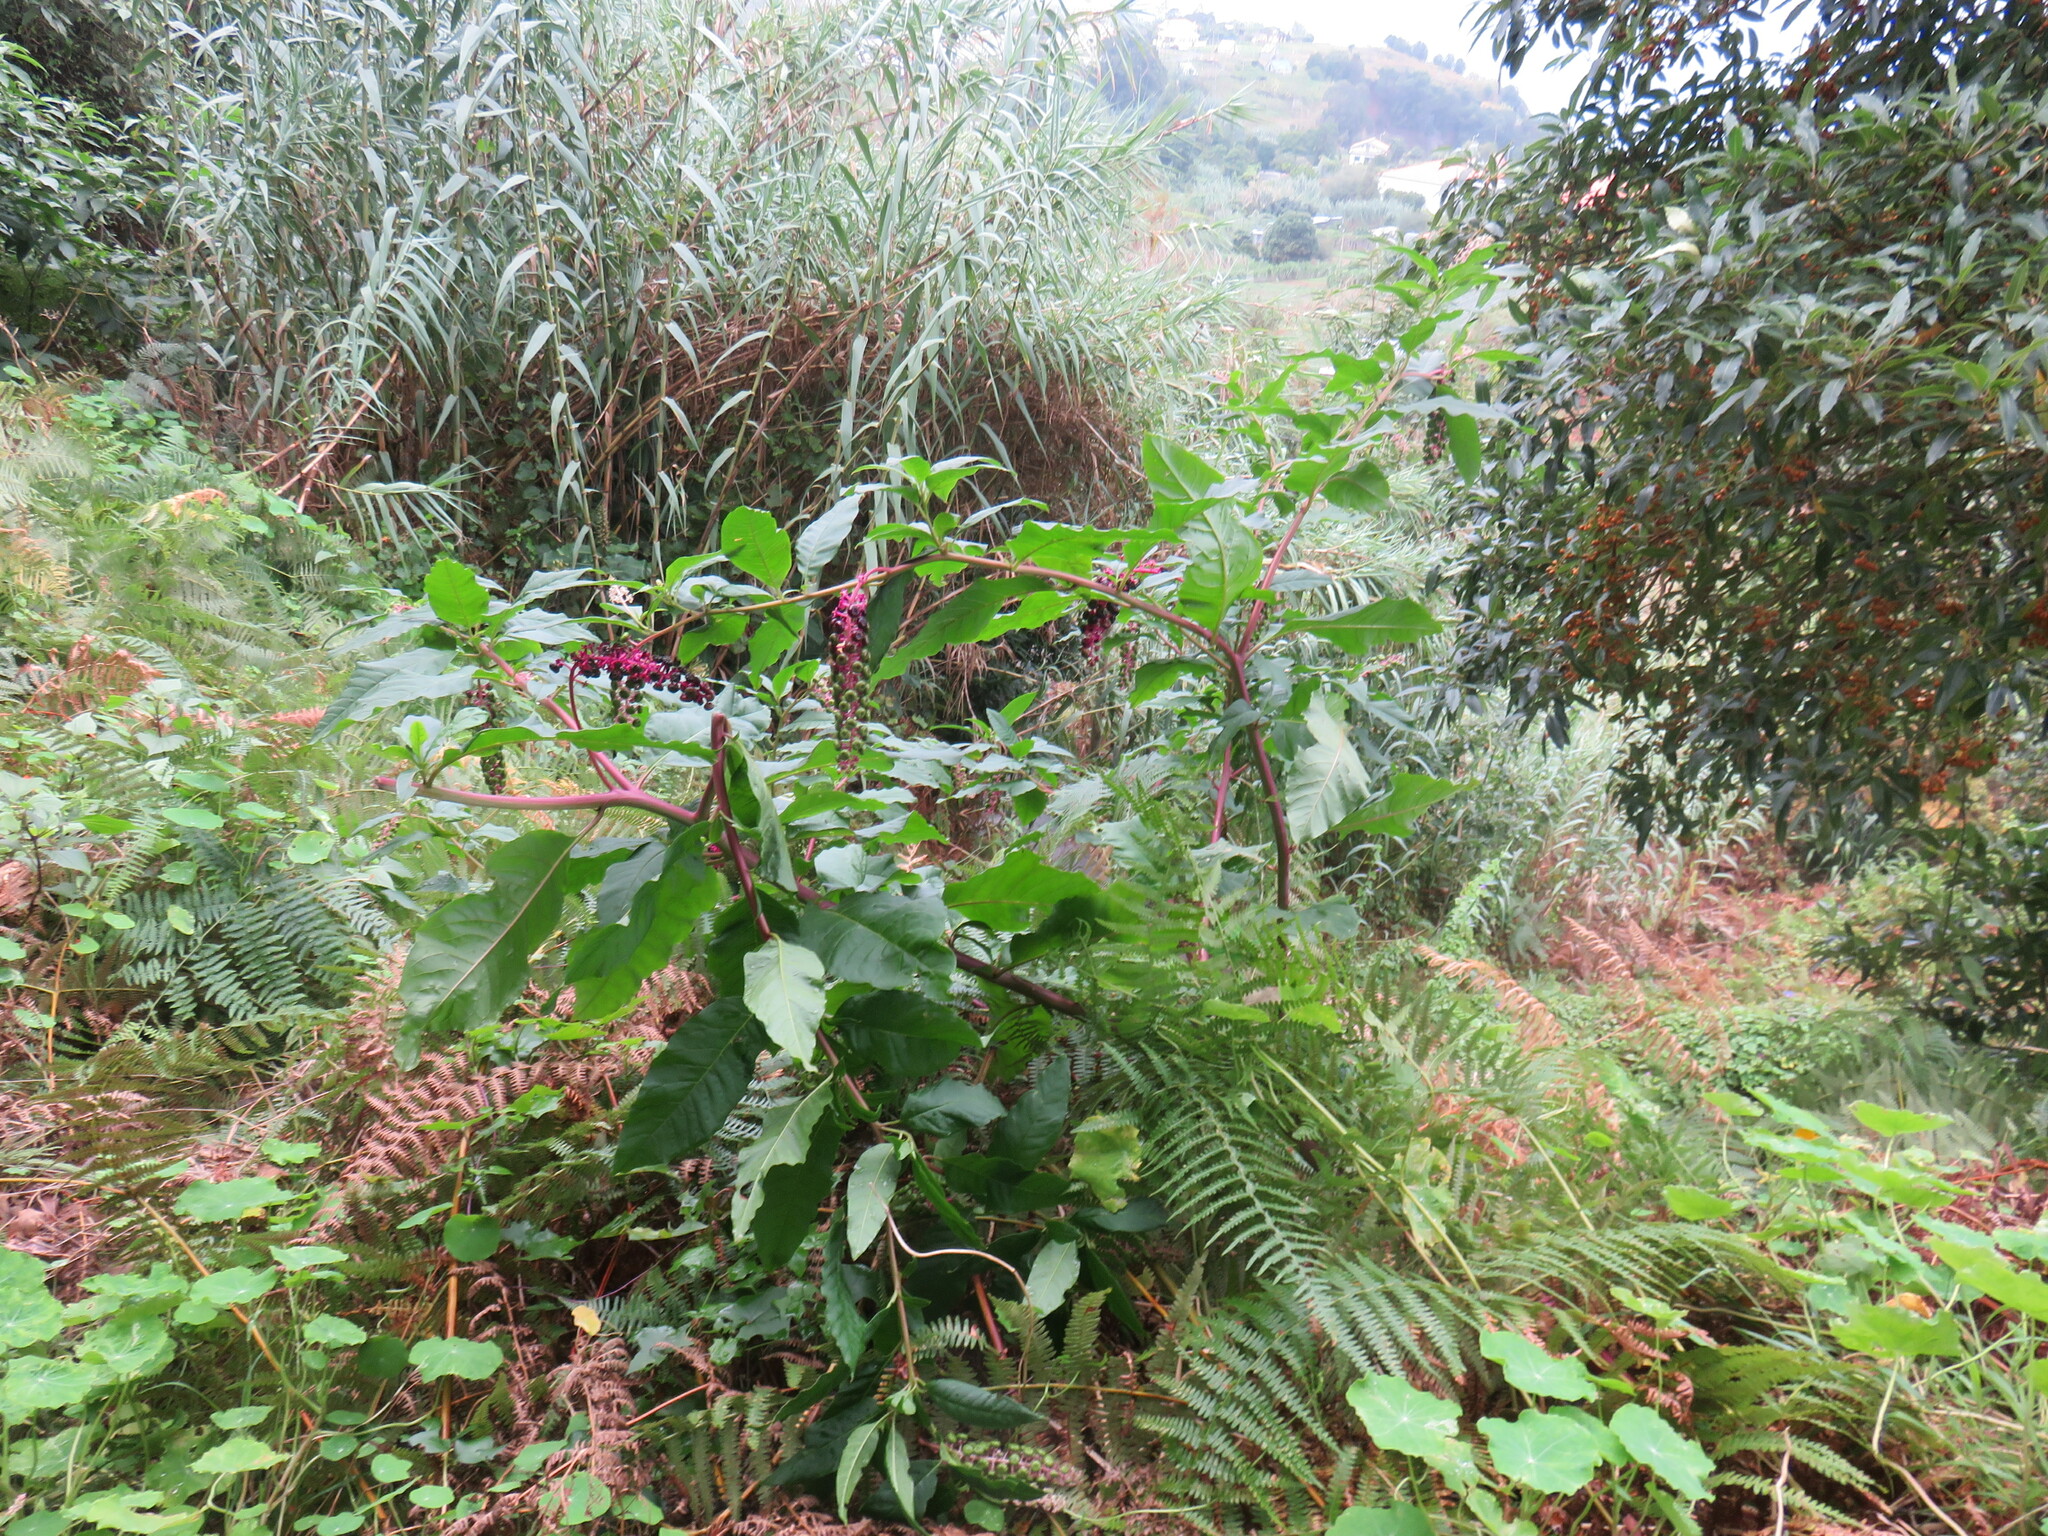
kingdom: Plantae
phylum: Tracheophyta
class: Magnoliopsida
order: Caryophyllales
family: Phytolaccaceae
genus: Phytolacca
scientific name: Phytolacca americana
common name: American pokeweed
